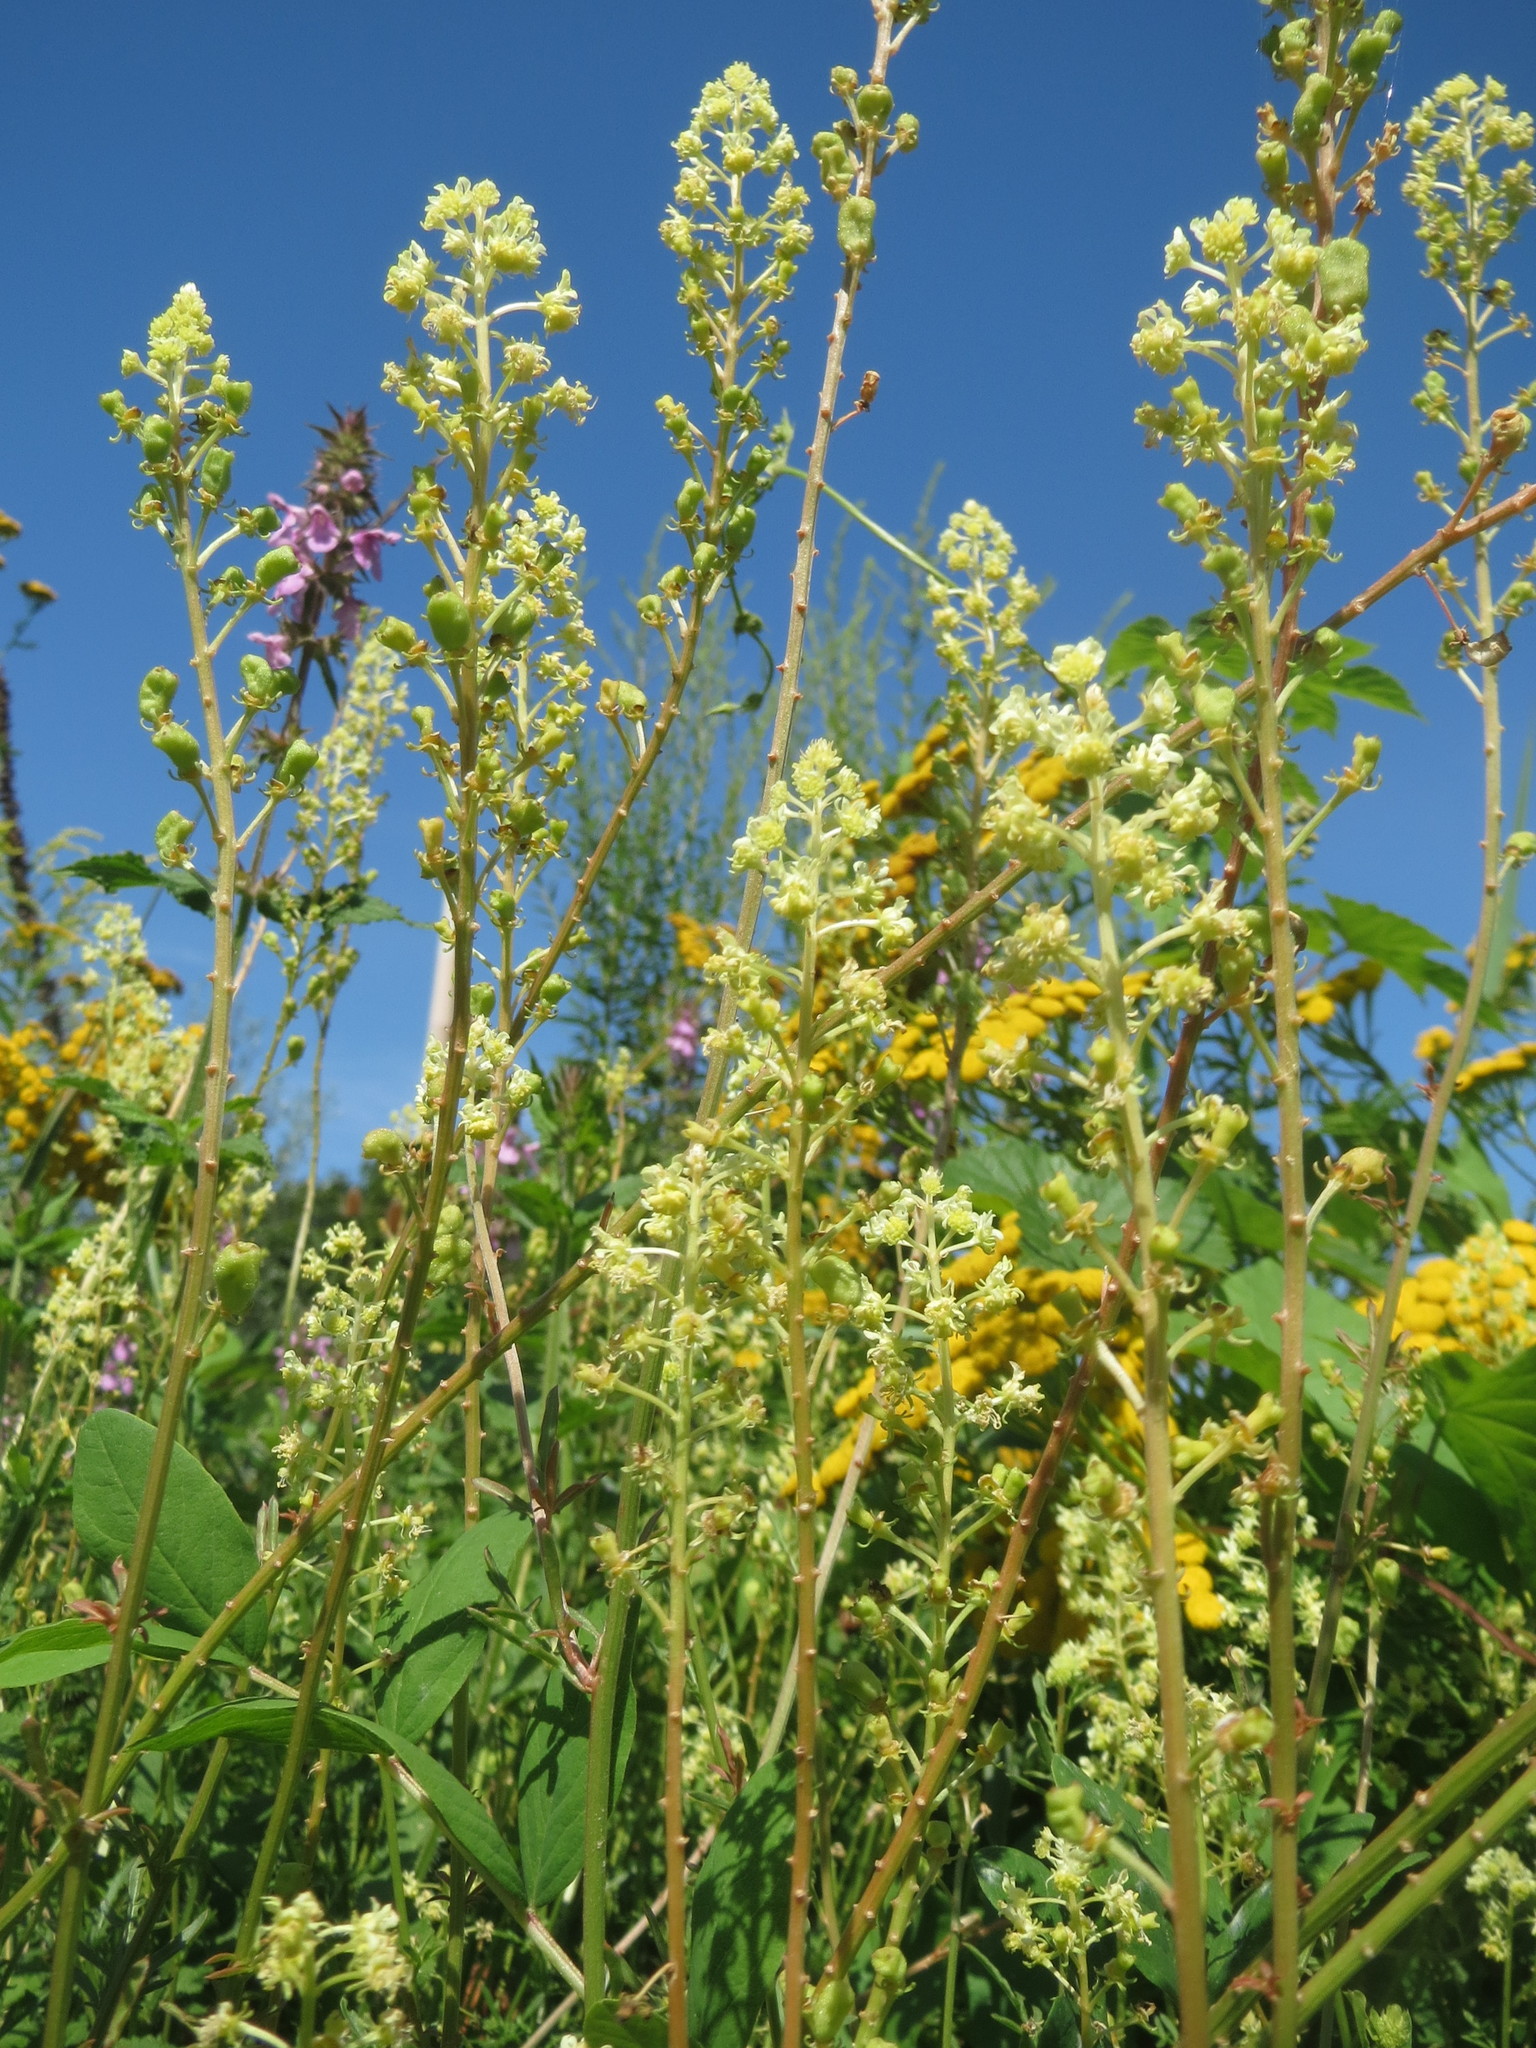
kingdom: Plantae
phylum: Tracheophyta
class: Magnoliopsida
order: Brassicales
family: Resedaceae
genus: Reseda
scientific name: Reseda lutea
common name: Wild mignonette
